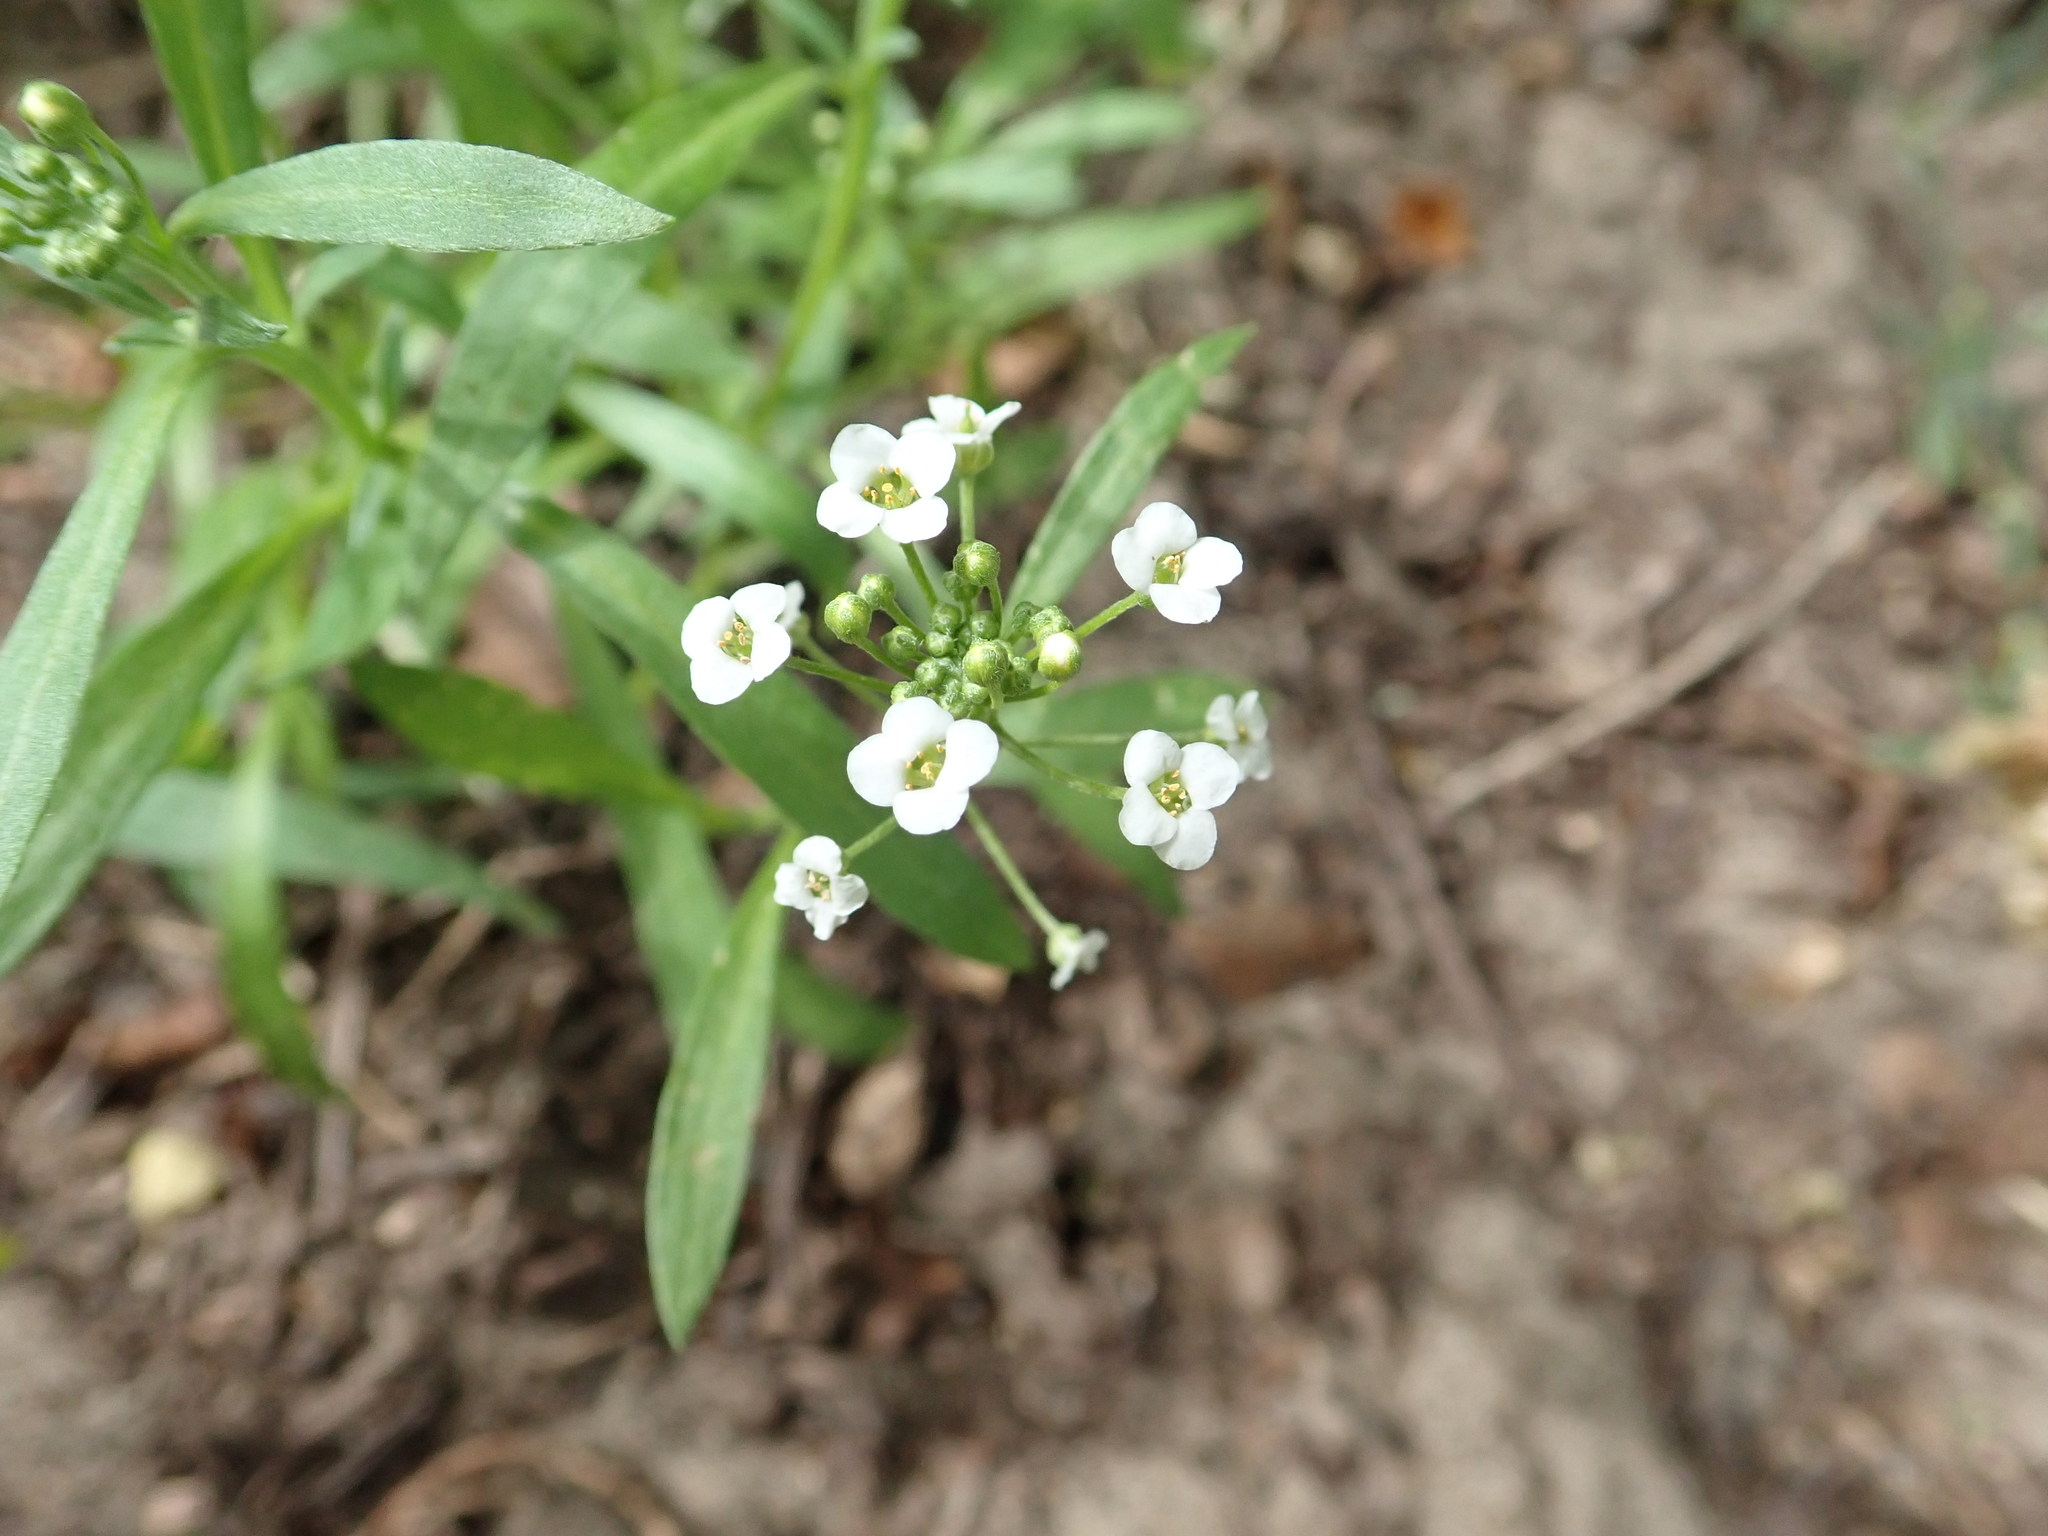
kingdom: Plantae
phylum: Tracheophyta
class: Magnoliopsida
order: Brassicales
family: Brassicaceae
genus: Lobularia
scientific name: Lobularia maritima
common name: Sweet alison
